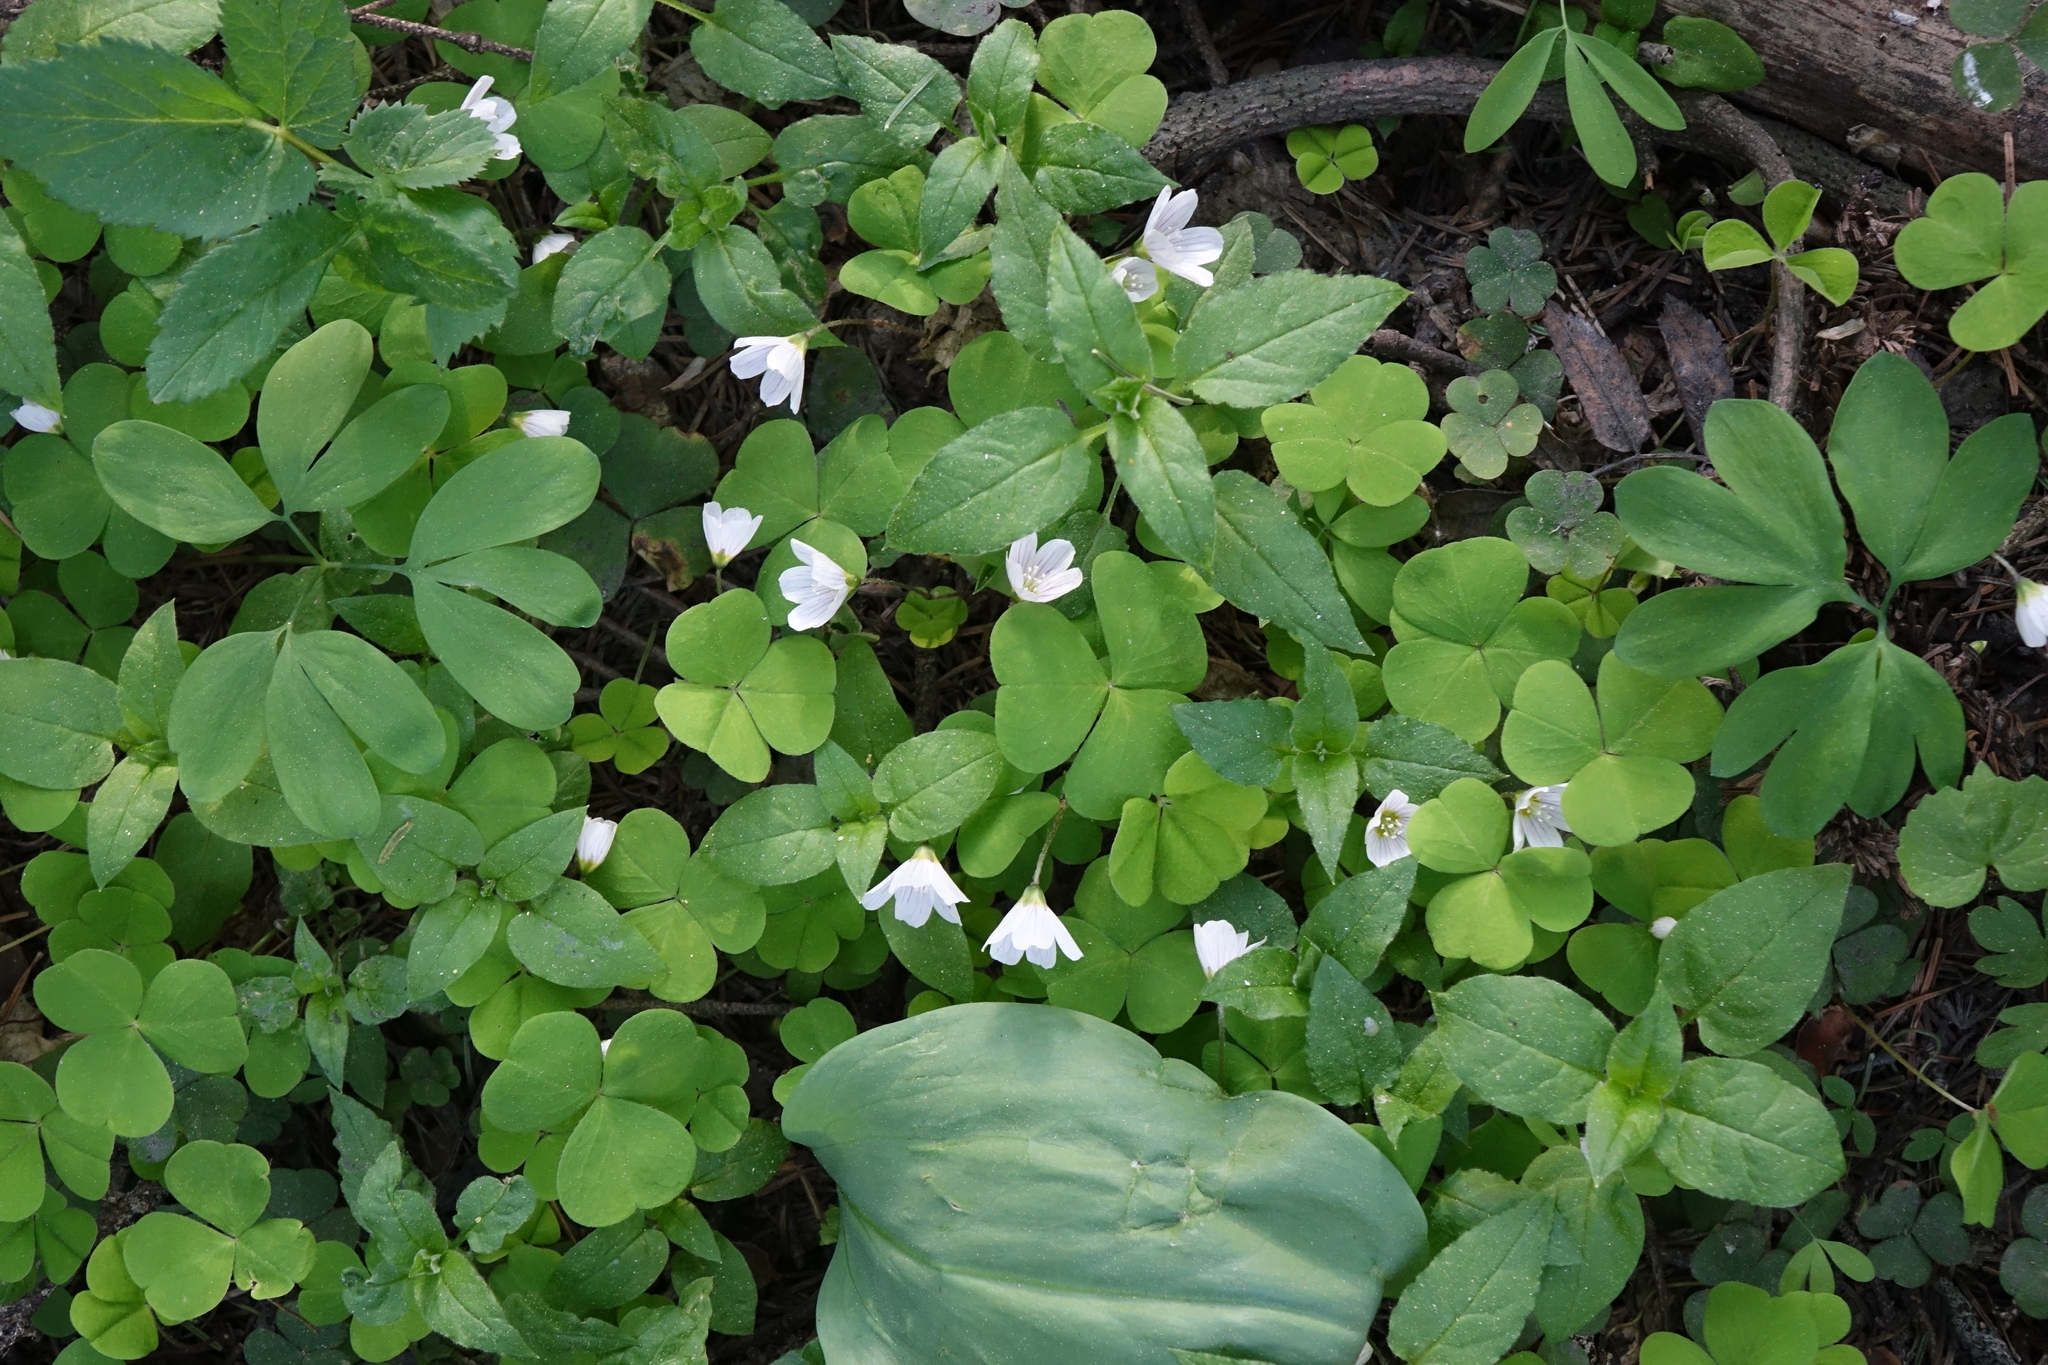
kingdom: Plantae
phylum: Tracheophyta
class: Magnoliopsida
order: Oxalidales
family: Oxalidaceae
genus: Oxalis
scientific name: Oxalis acetosella
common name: Wood-sorrel
